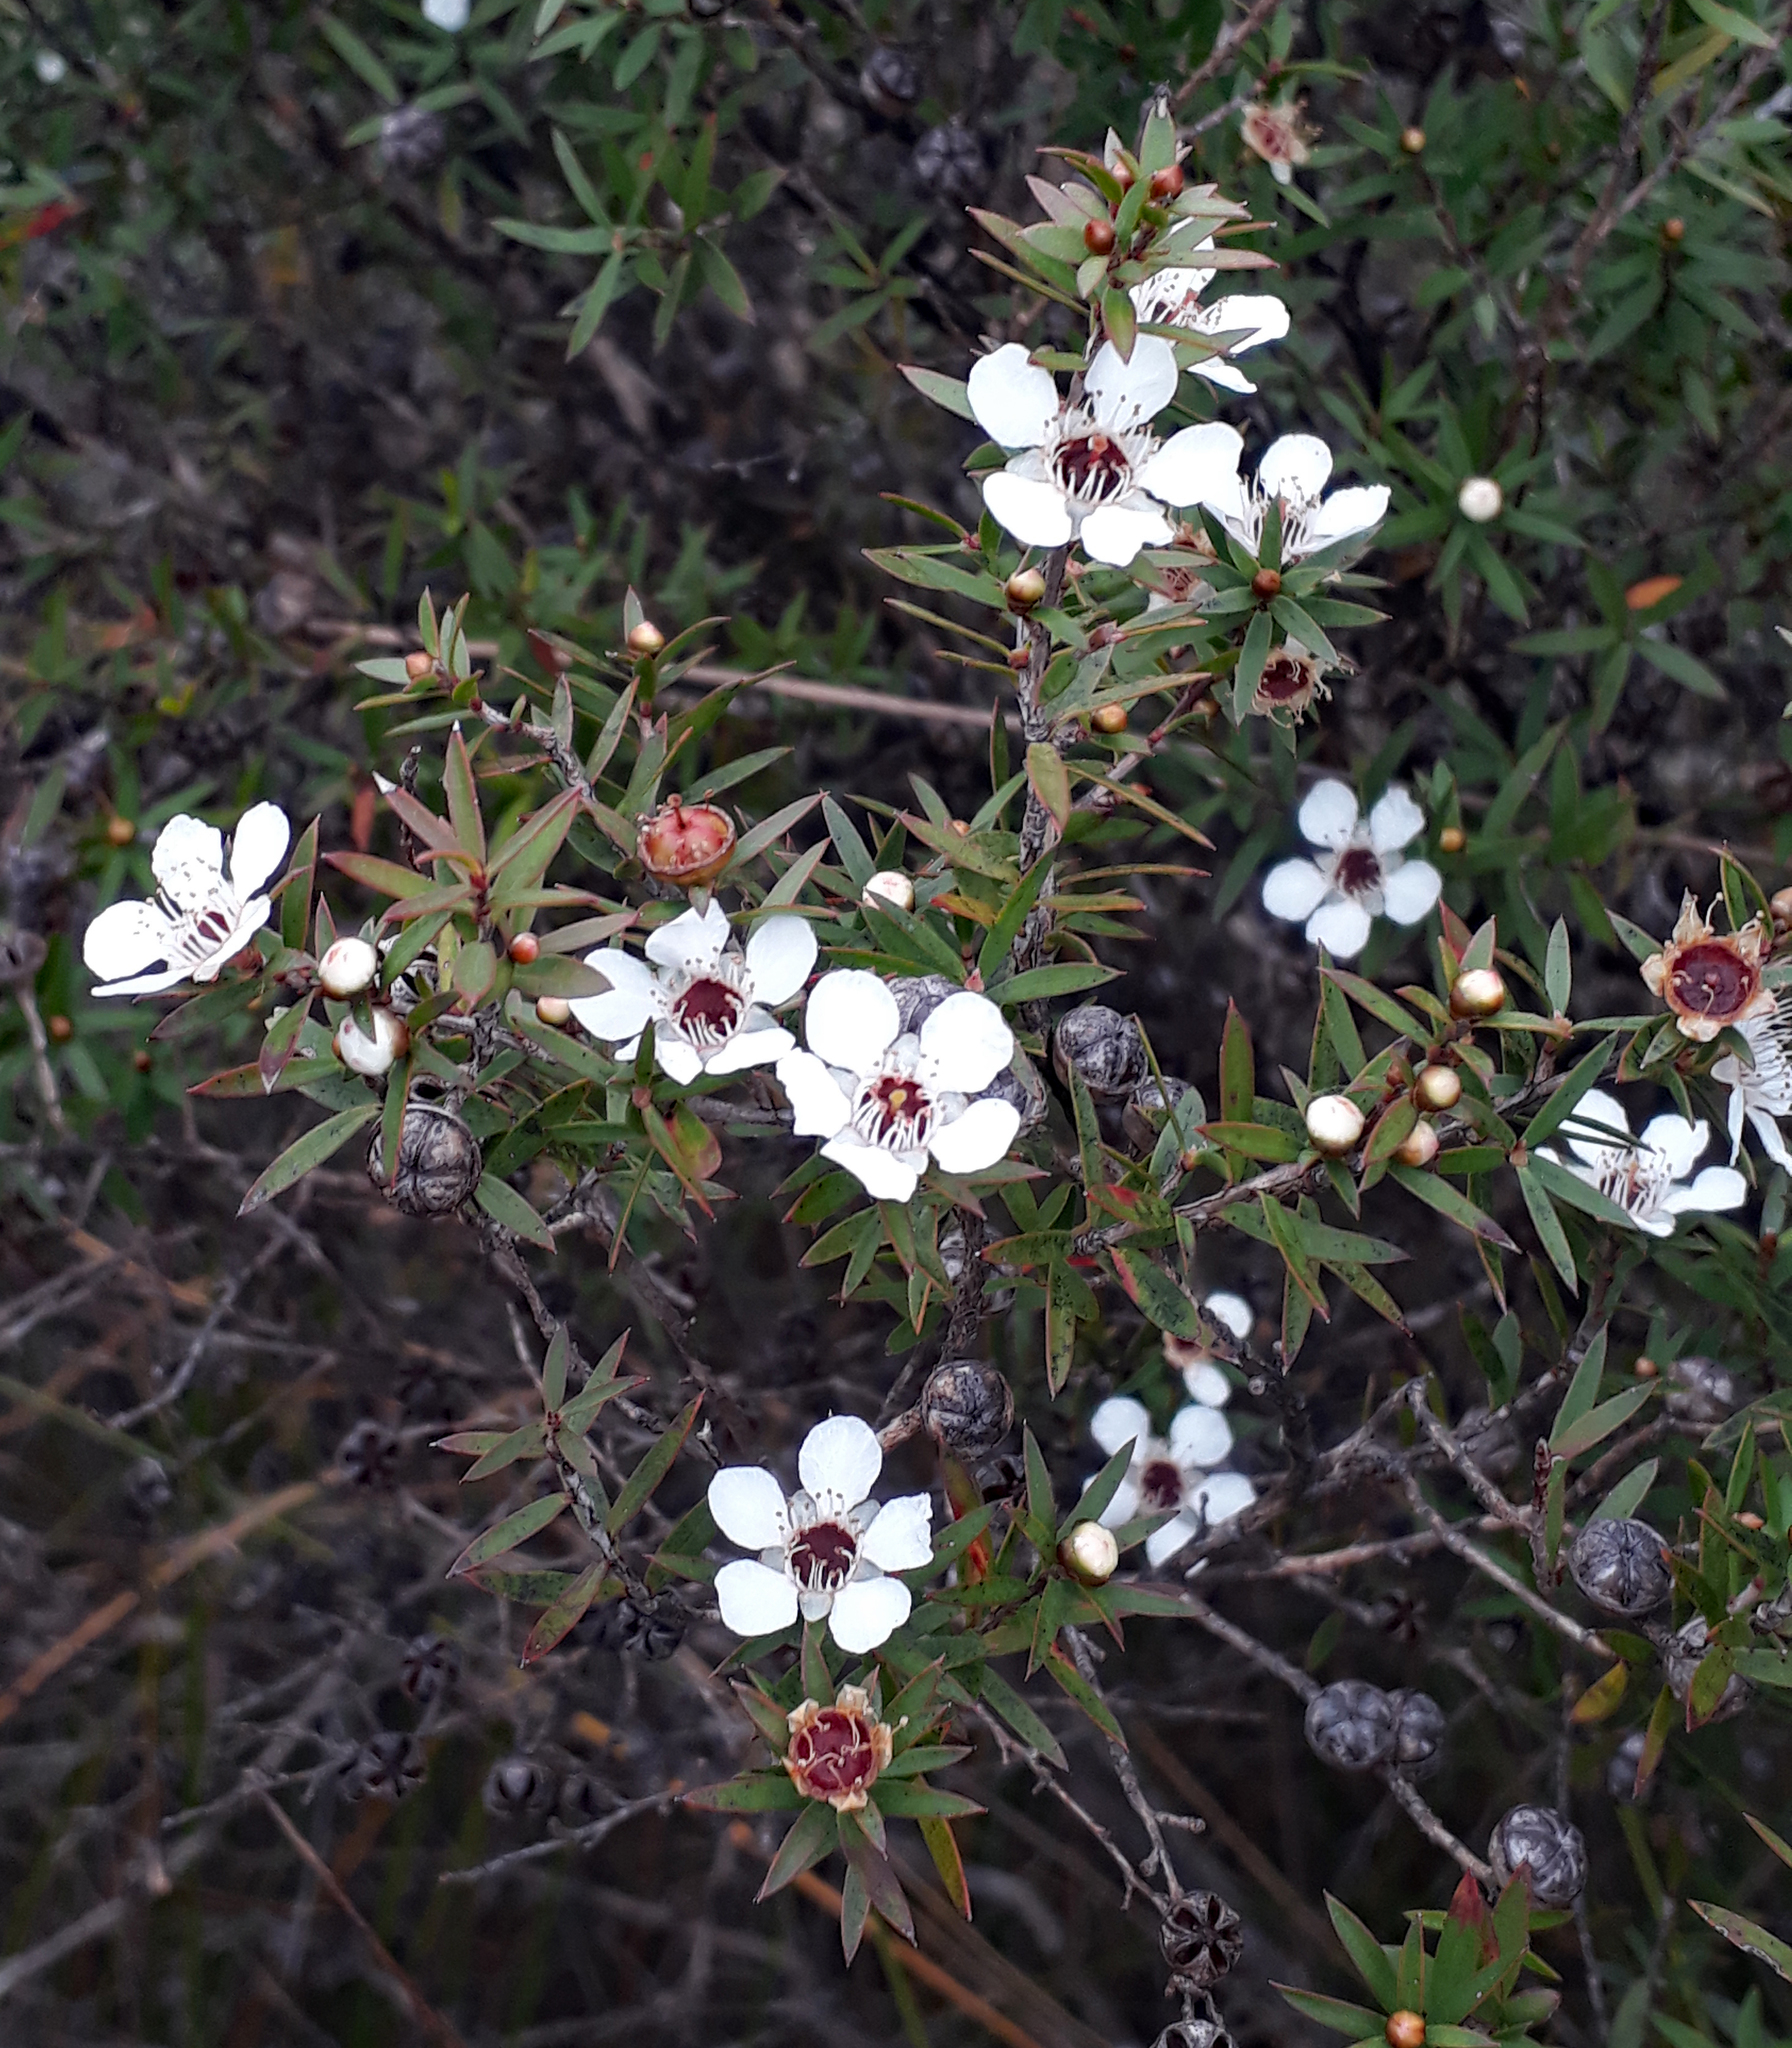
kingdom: Plantae
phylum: Tracheophyta
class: Magnoliopsida
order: Myrtales
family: Myrtaceae
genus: Leptospermum
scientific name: Leptospermum scoparium
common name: Broom tea-tree
